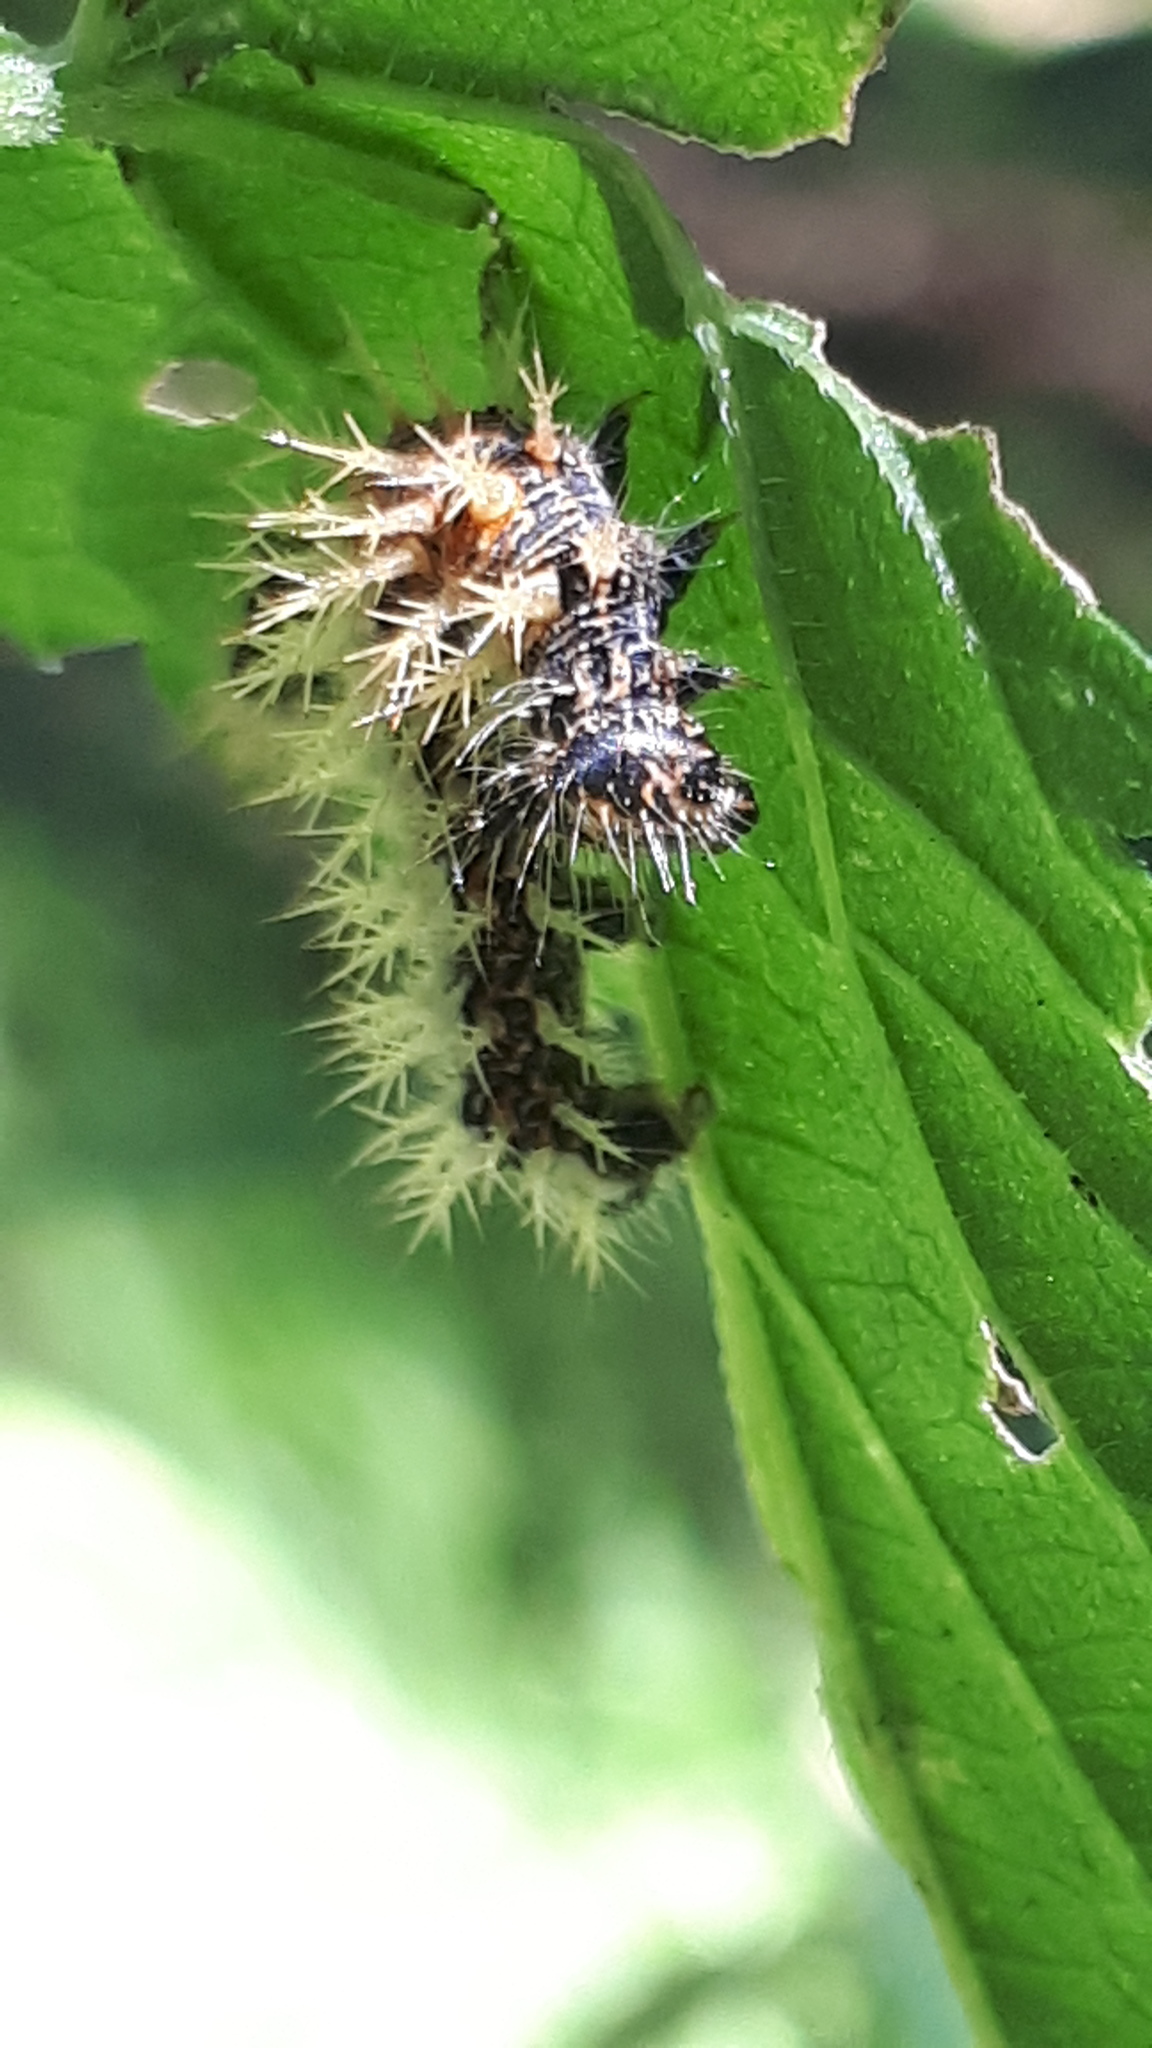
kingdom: Animalia
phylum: Arthropoda
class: Insecta
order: Lepidoptera
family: Nymphalidae
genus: Polygonia
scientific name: Polygonia c-album
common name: Comma
